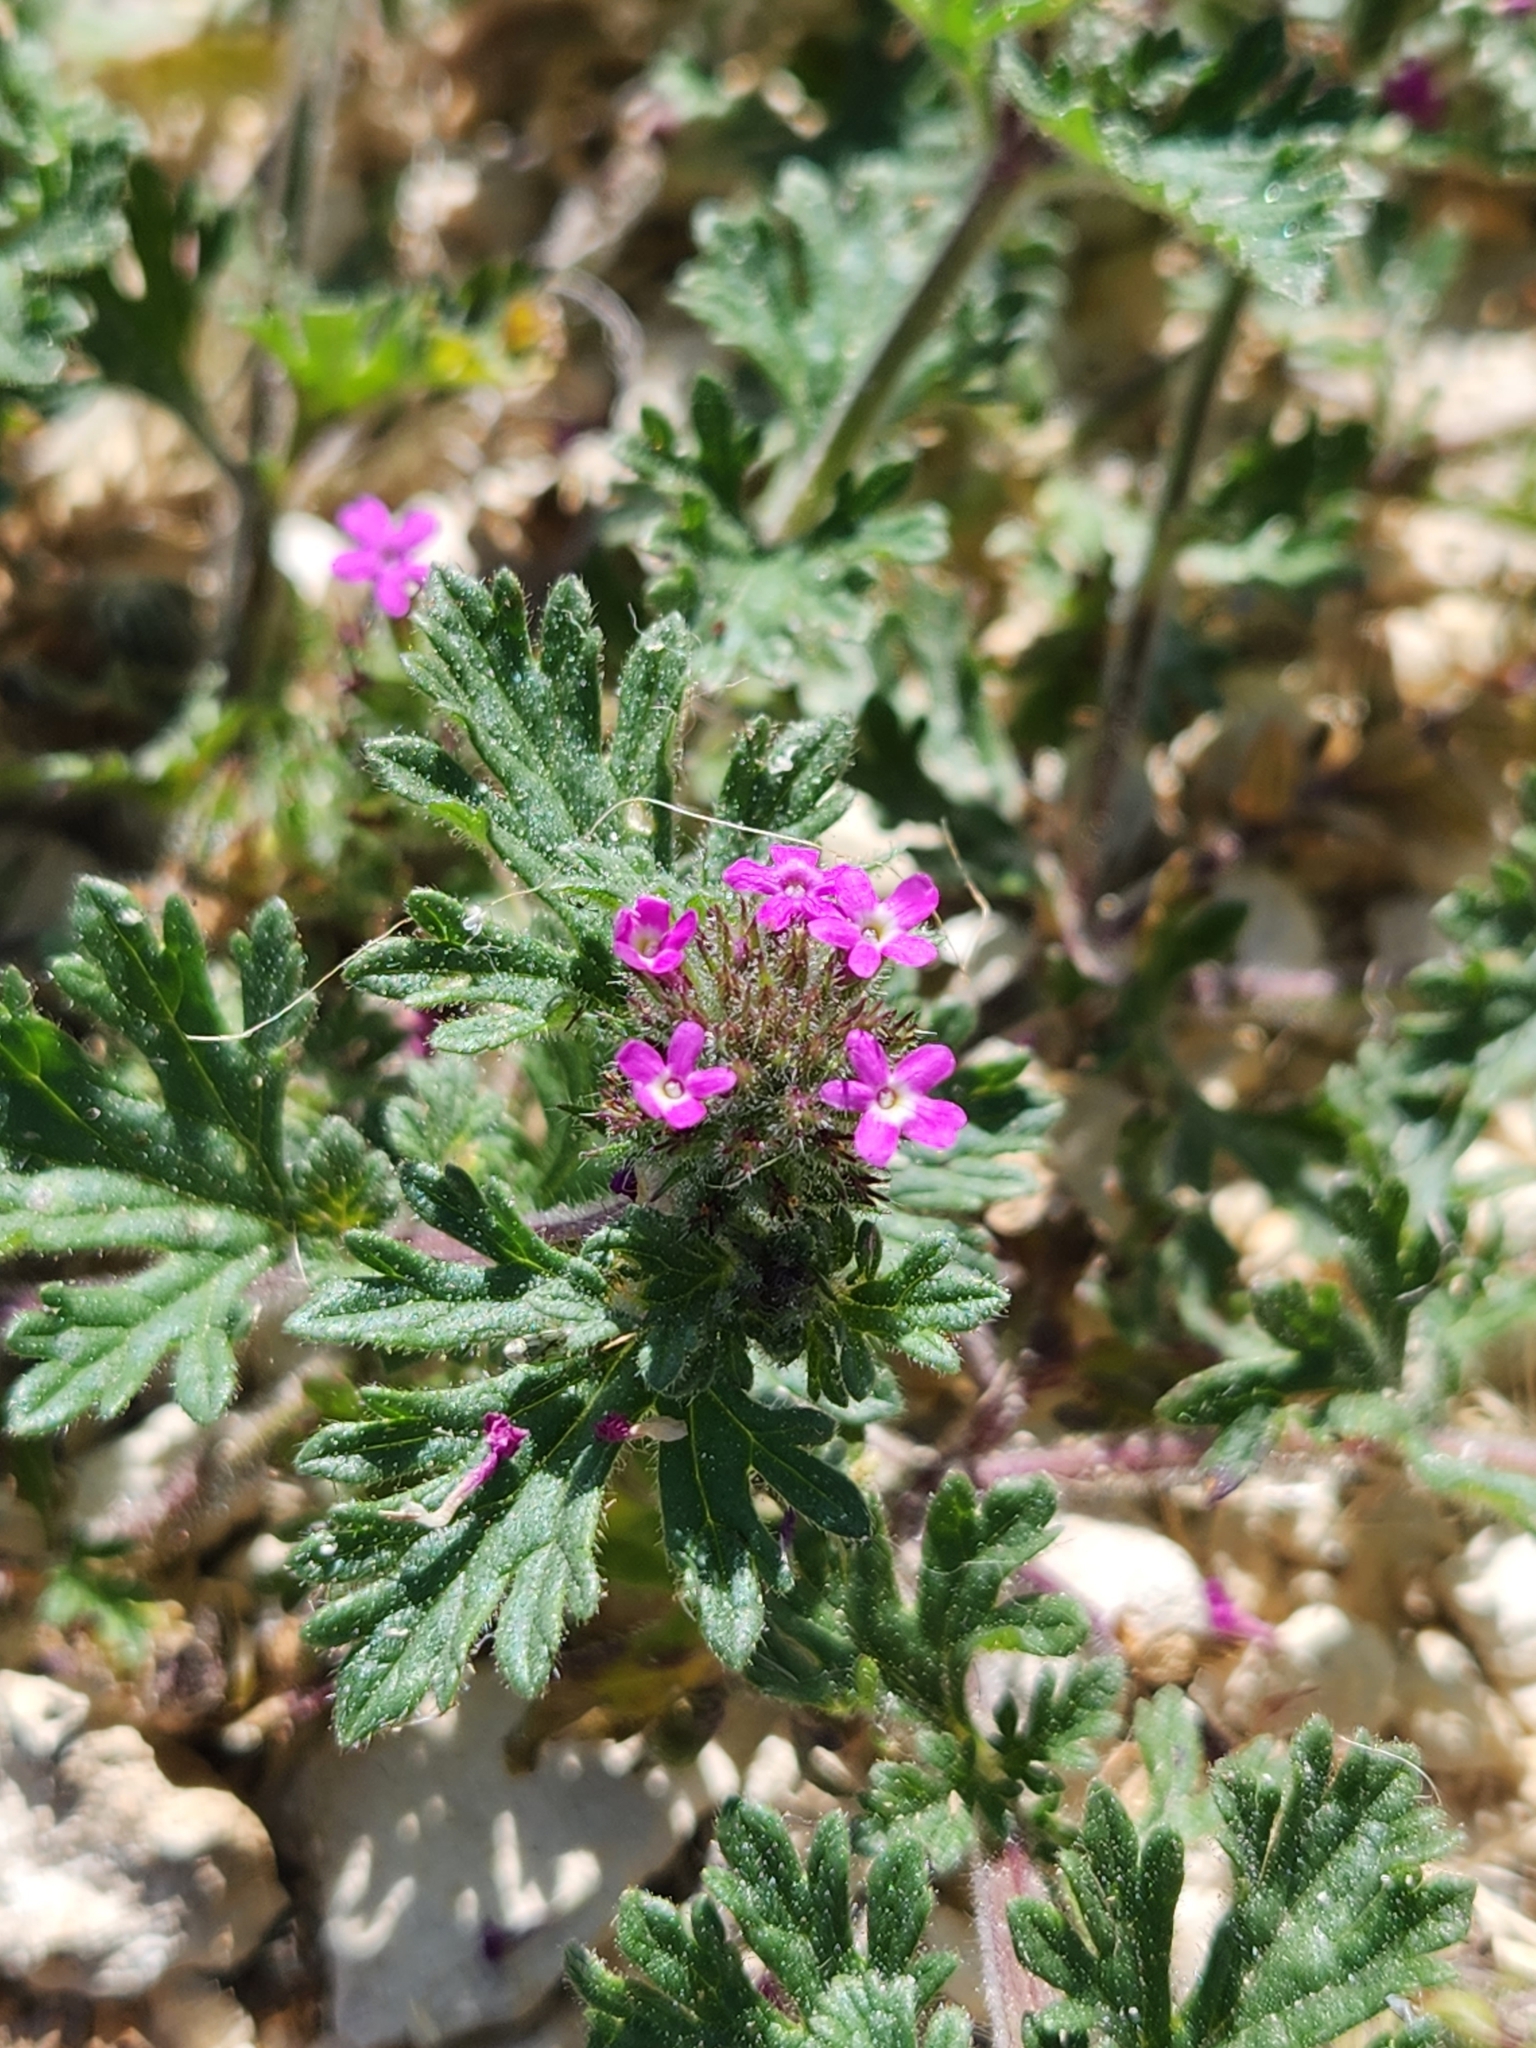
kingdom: Plantae
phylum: Tracheophyta
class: Magnoliopsida
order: Lamiales
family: Verbenaceae
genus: Verbena
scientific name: Verbena pumila
